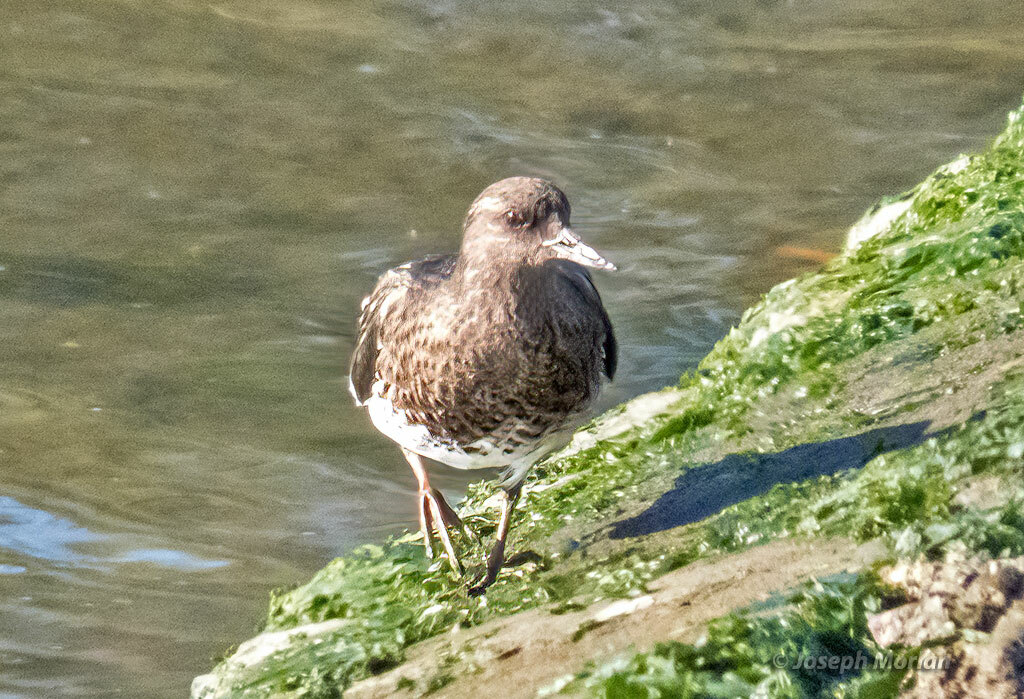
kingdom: Animalia
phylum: Chordata
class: Aves
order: Charadriiformes
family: Scolopacidae
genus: Arenaria
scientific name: Arenaria melanocephala
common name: Black turnstone
